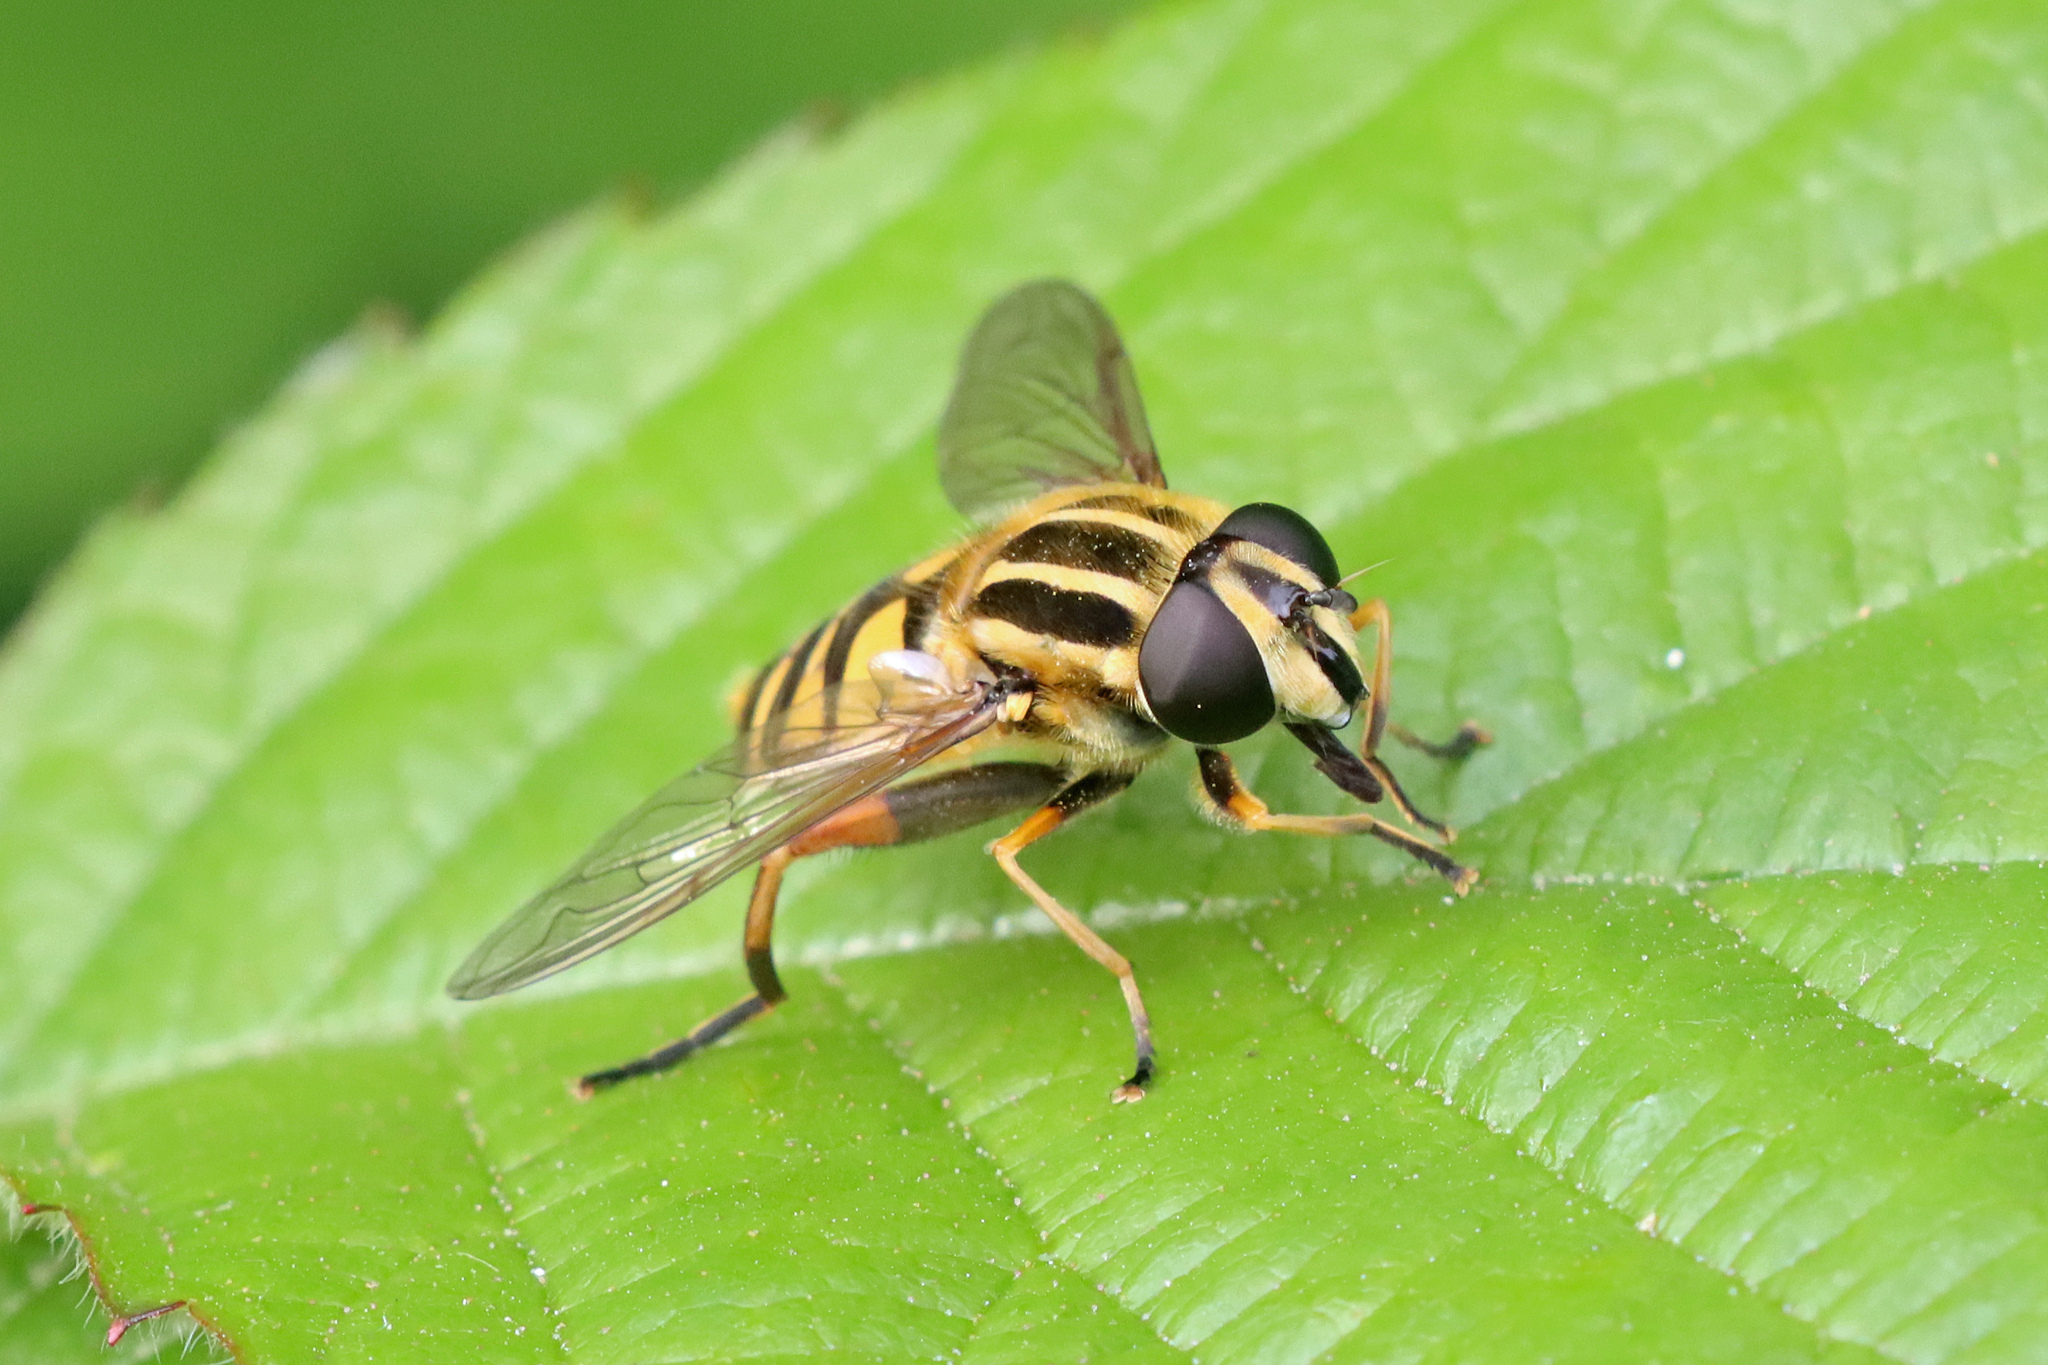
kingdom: Animalia
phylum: Arthropoda
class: Insecta
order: Diptera
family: Syrphidae
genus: Helophilus
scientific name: Helophilus pendulus
